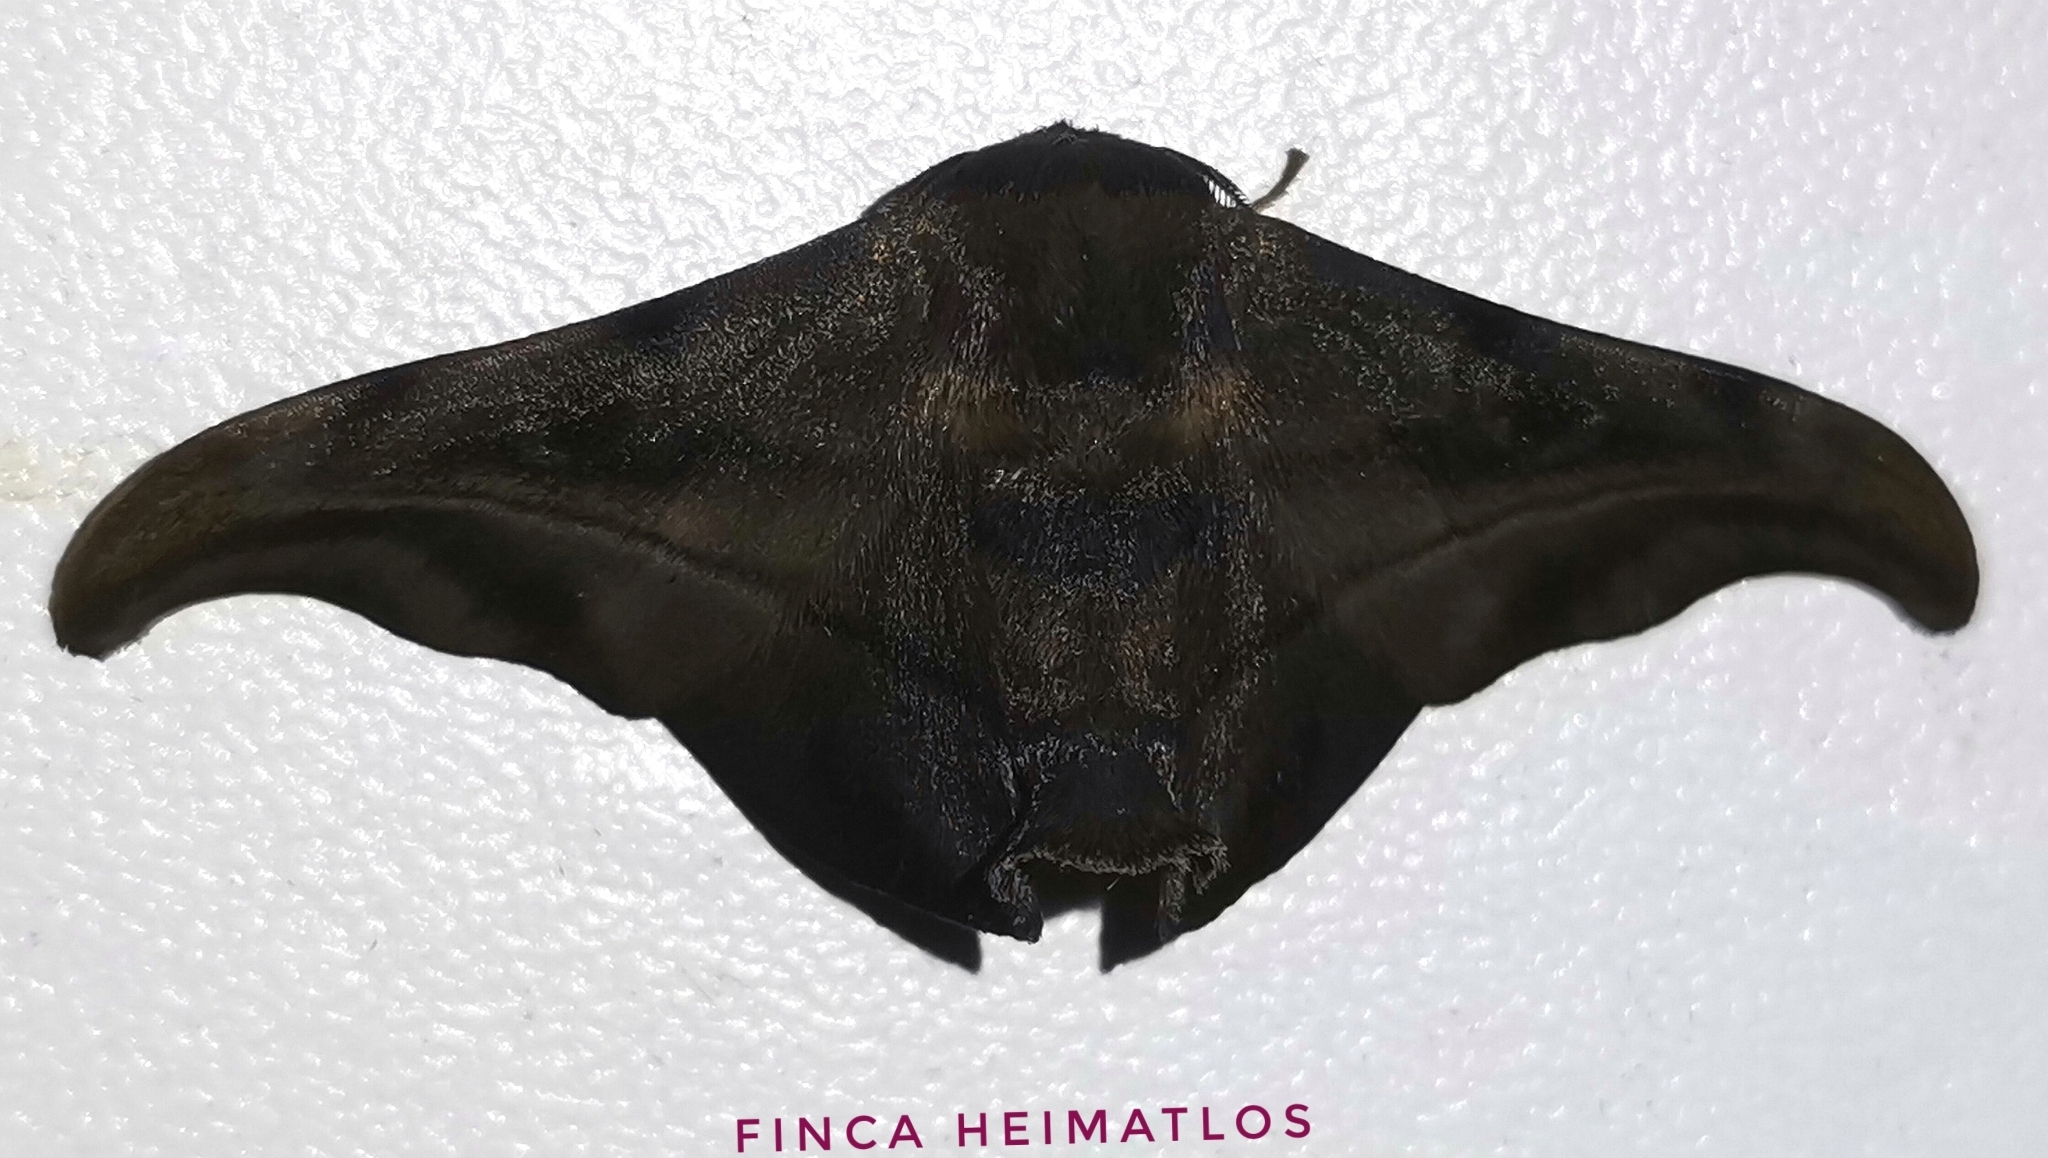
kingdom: Animalia
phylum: Arthropoda
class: Insecta
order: Lepidoptera
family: Mimallonidae
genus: Thaelia
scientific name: Thaelia subrubiginosa
